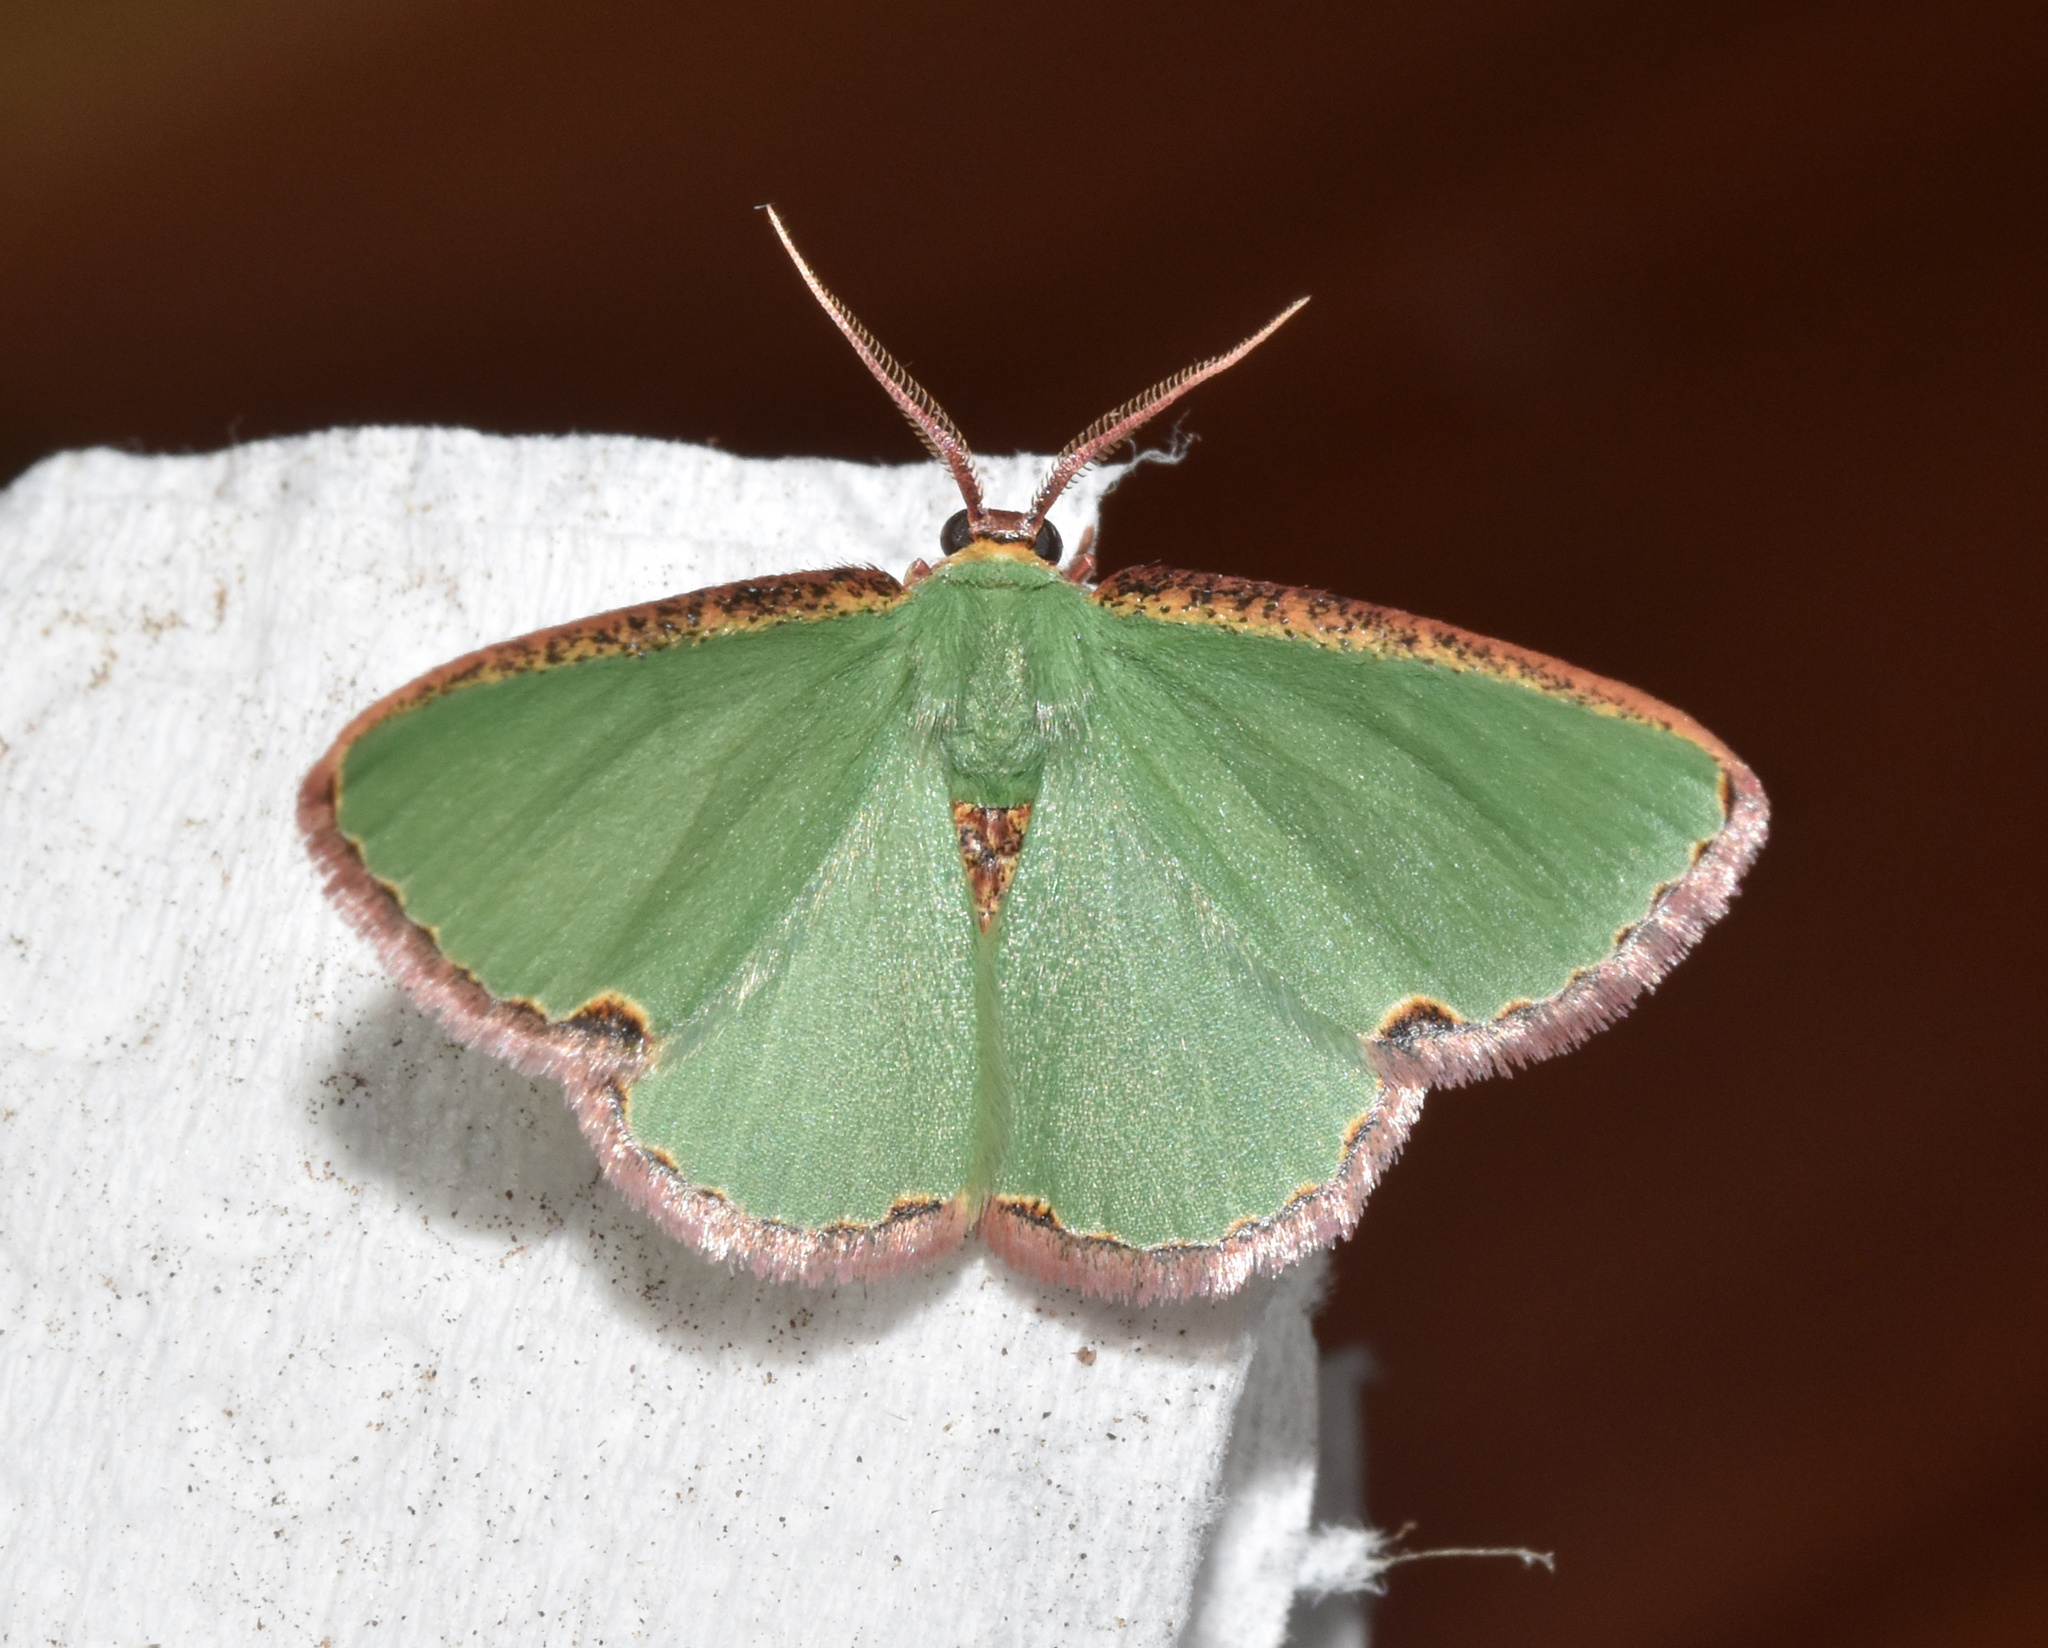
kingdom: Animalia
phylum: Arthropoda
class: Insecta
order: Lepidoptera
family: Geometridae
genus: Heterorachis
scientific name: Heterorachis devocata
